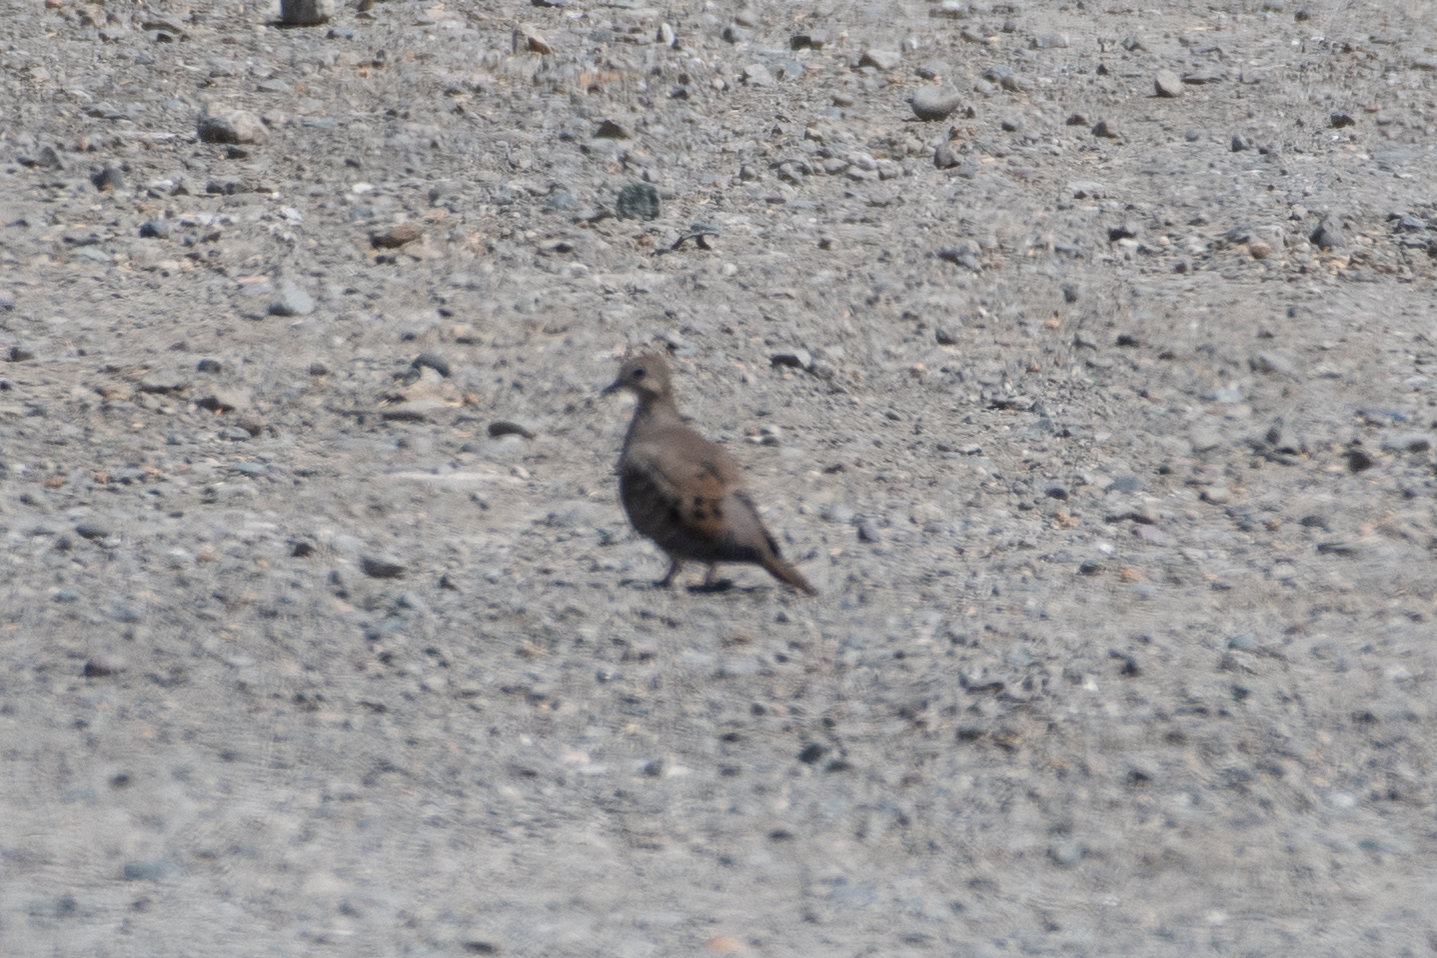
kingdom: Animalia
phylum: Chordata
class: Aves
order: Columbiformes
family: Columbidae
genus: Zenaida
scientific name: Zenaida macroura
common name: Mourning dove
